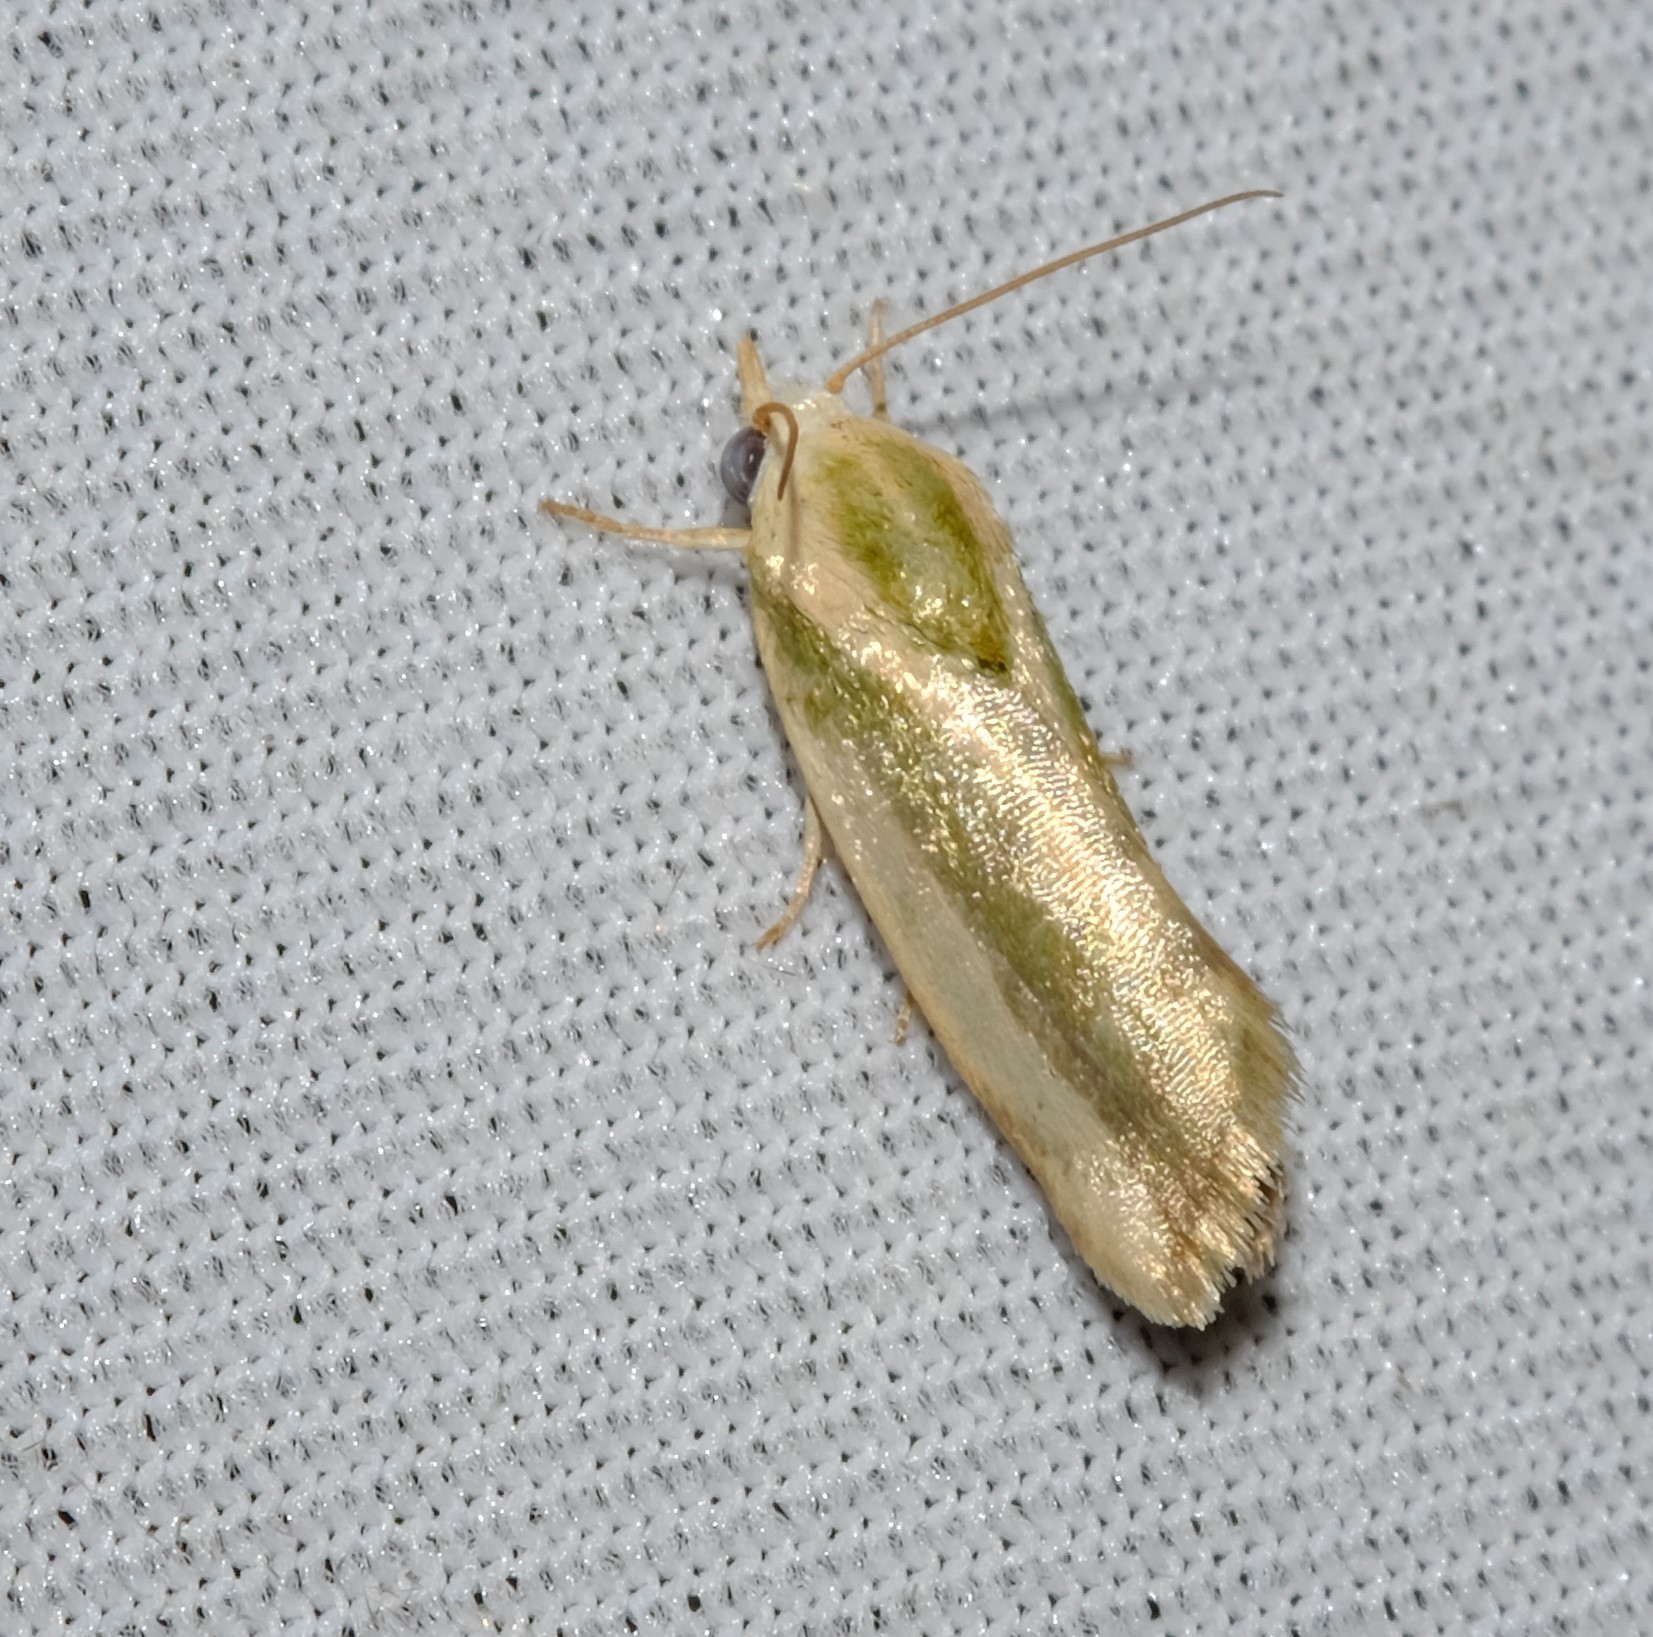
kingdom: Animalia
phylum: Arthropoda
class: Insecta
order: Lepidoptera
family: Nolidae
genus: Earias
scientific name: Earias huegeliana
